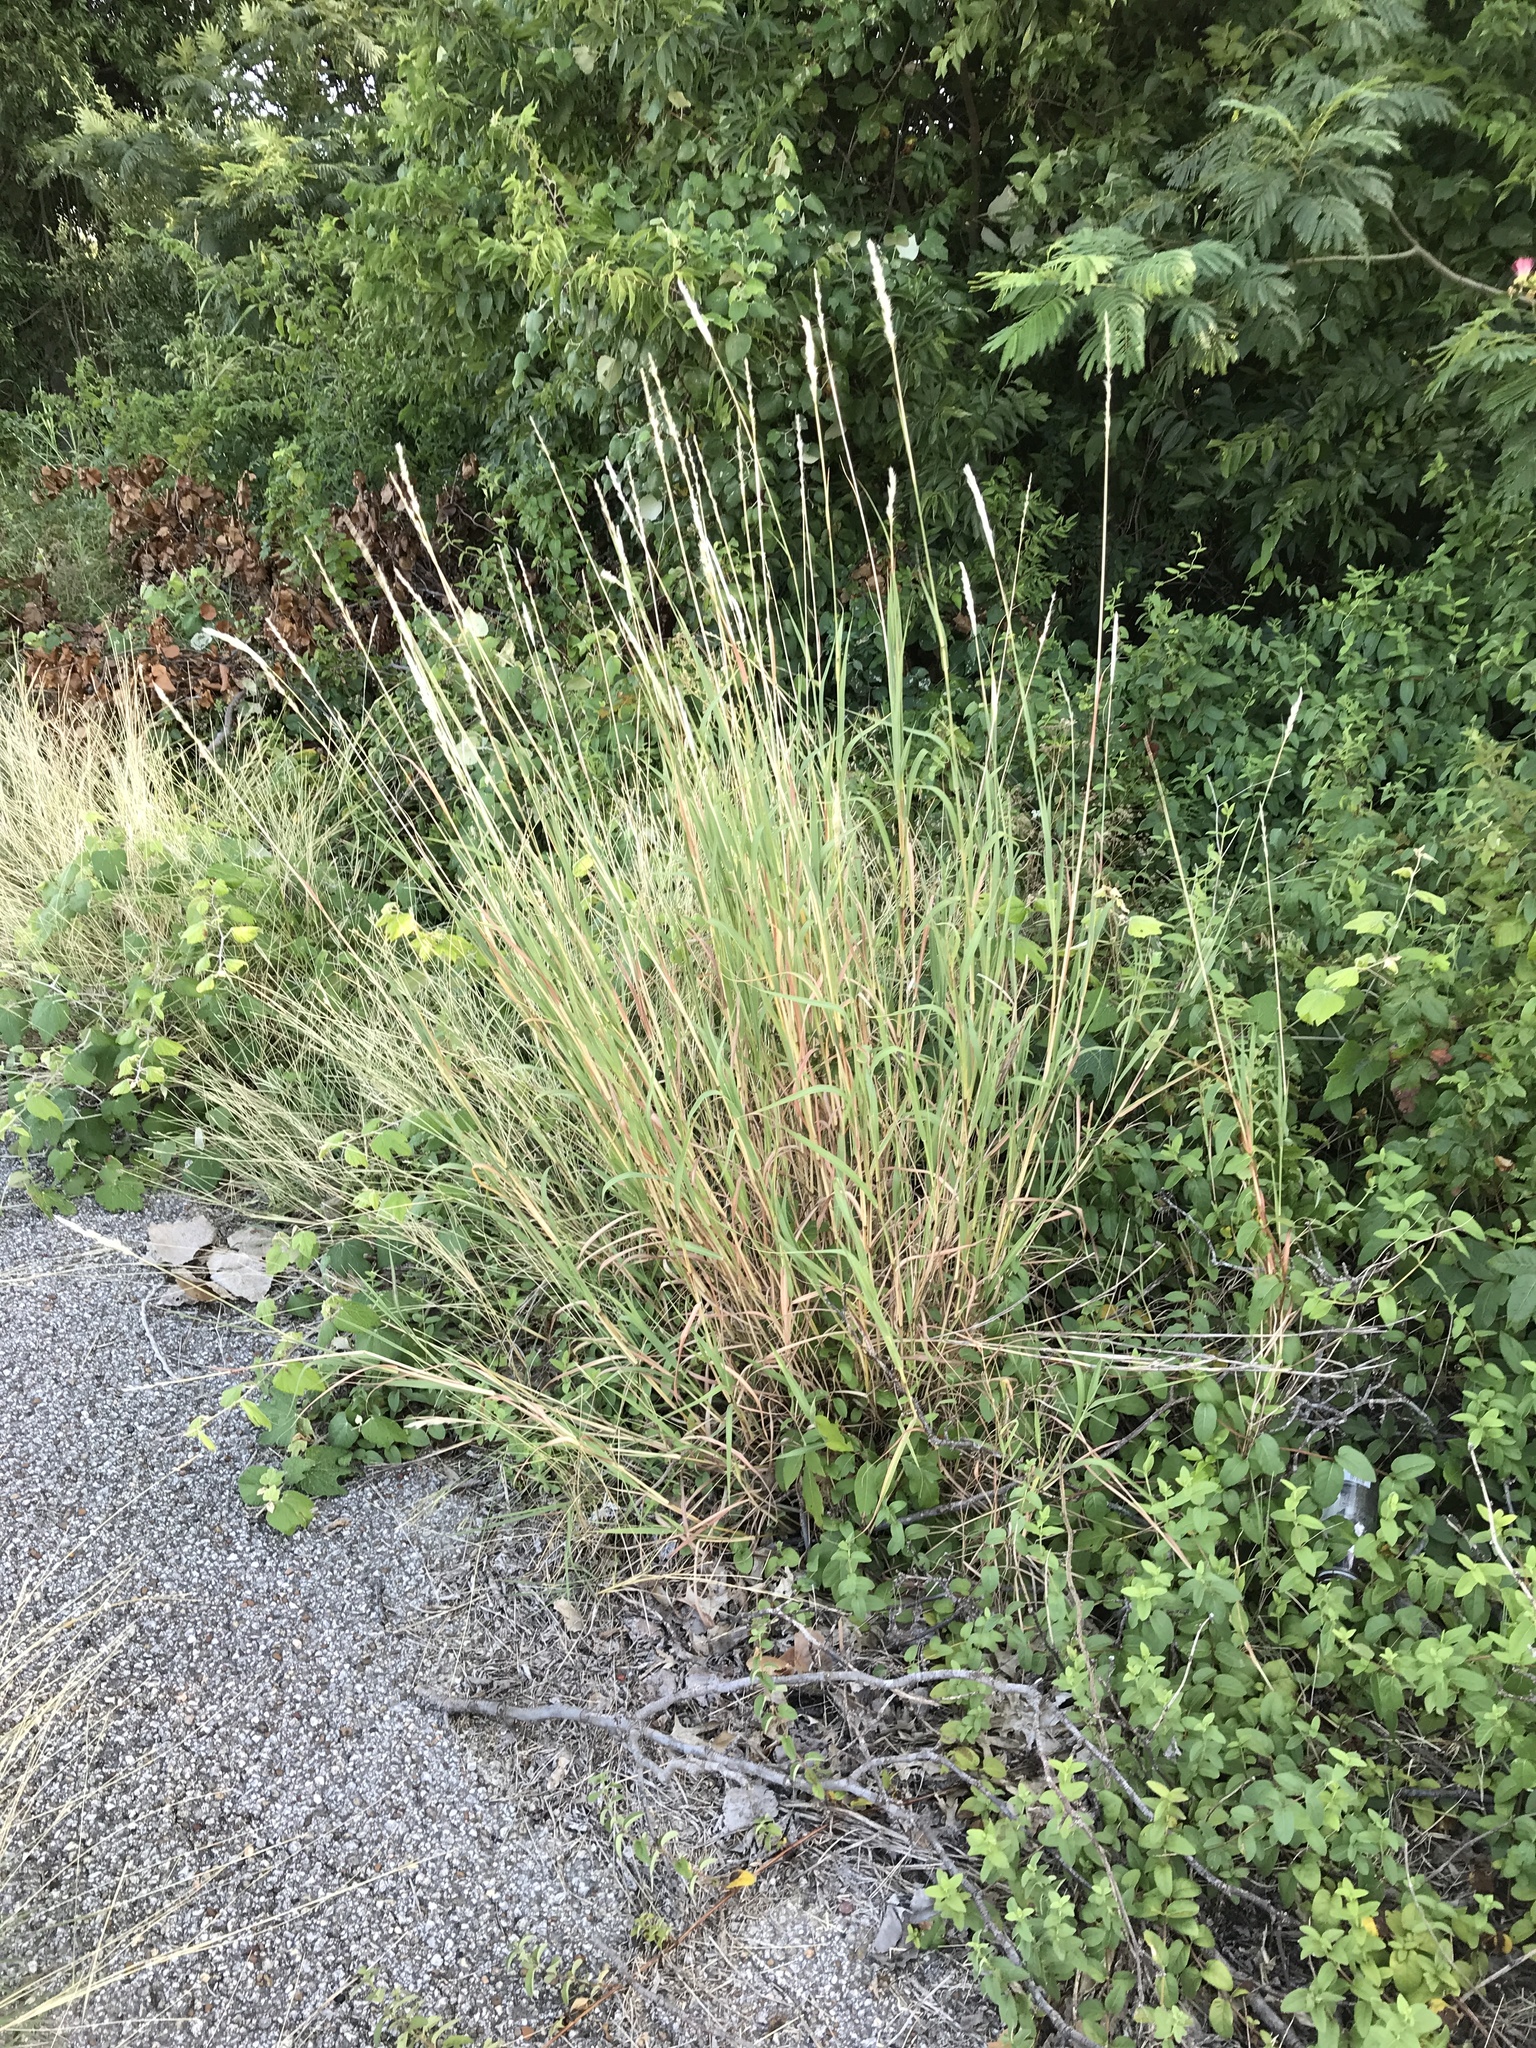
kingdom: Plantae
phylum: Tracheophyta
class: Liliopsida
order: Poales
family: Poaceae
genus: Bothriochloa
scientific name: Bothriochloa torreyana
